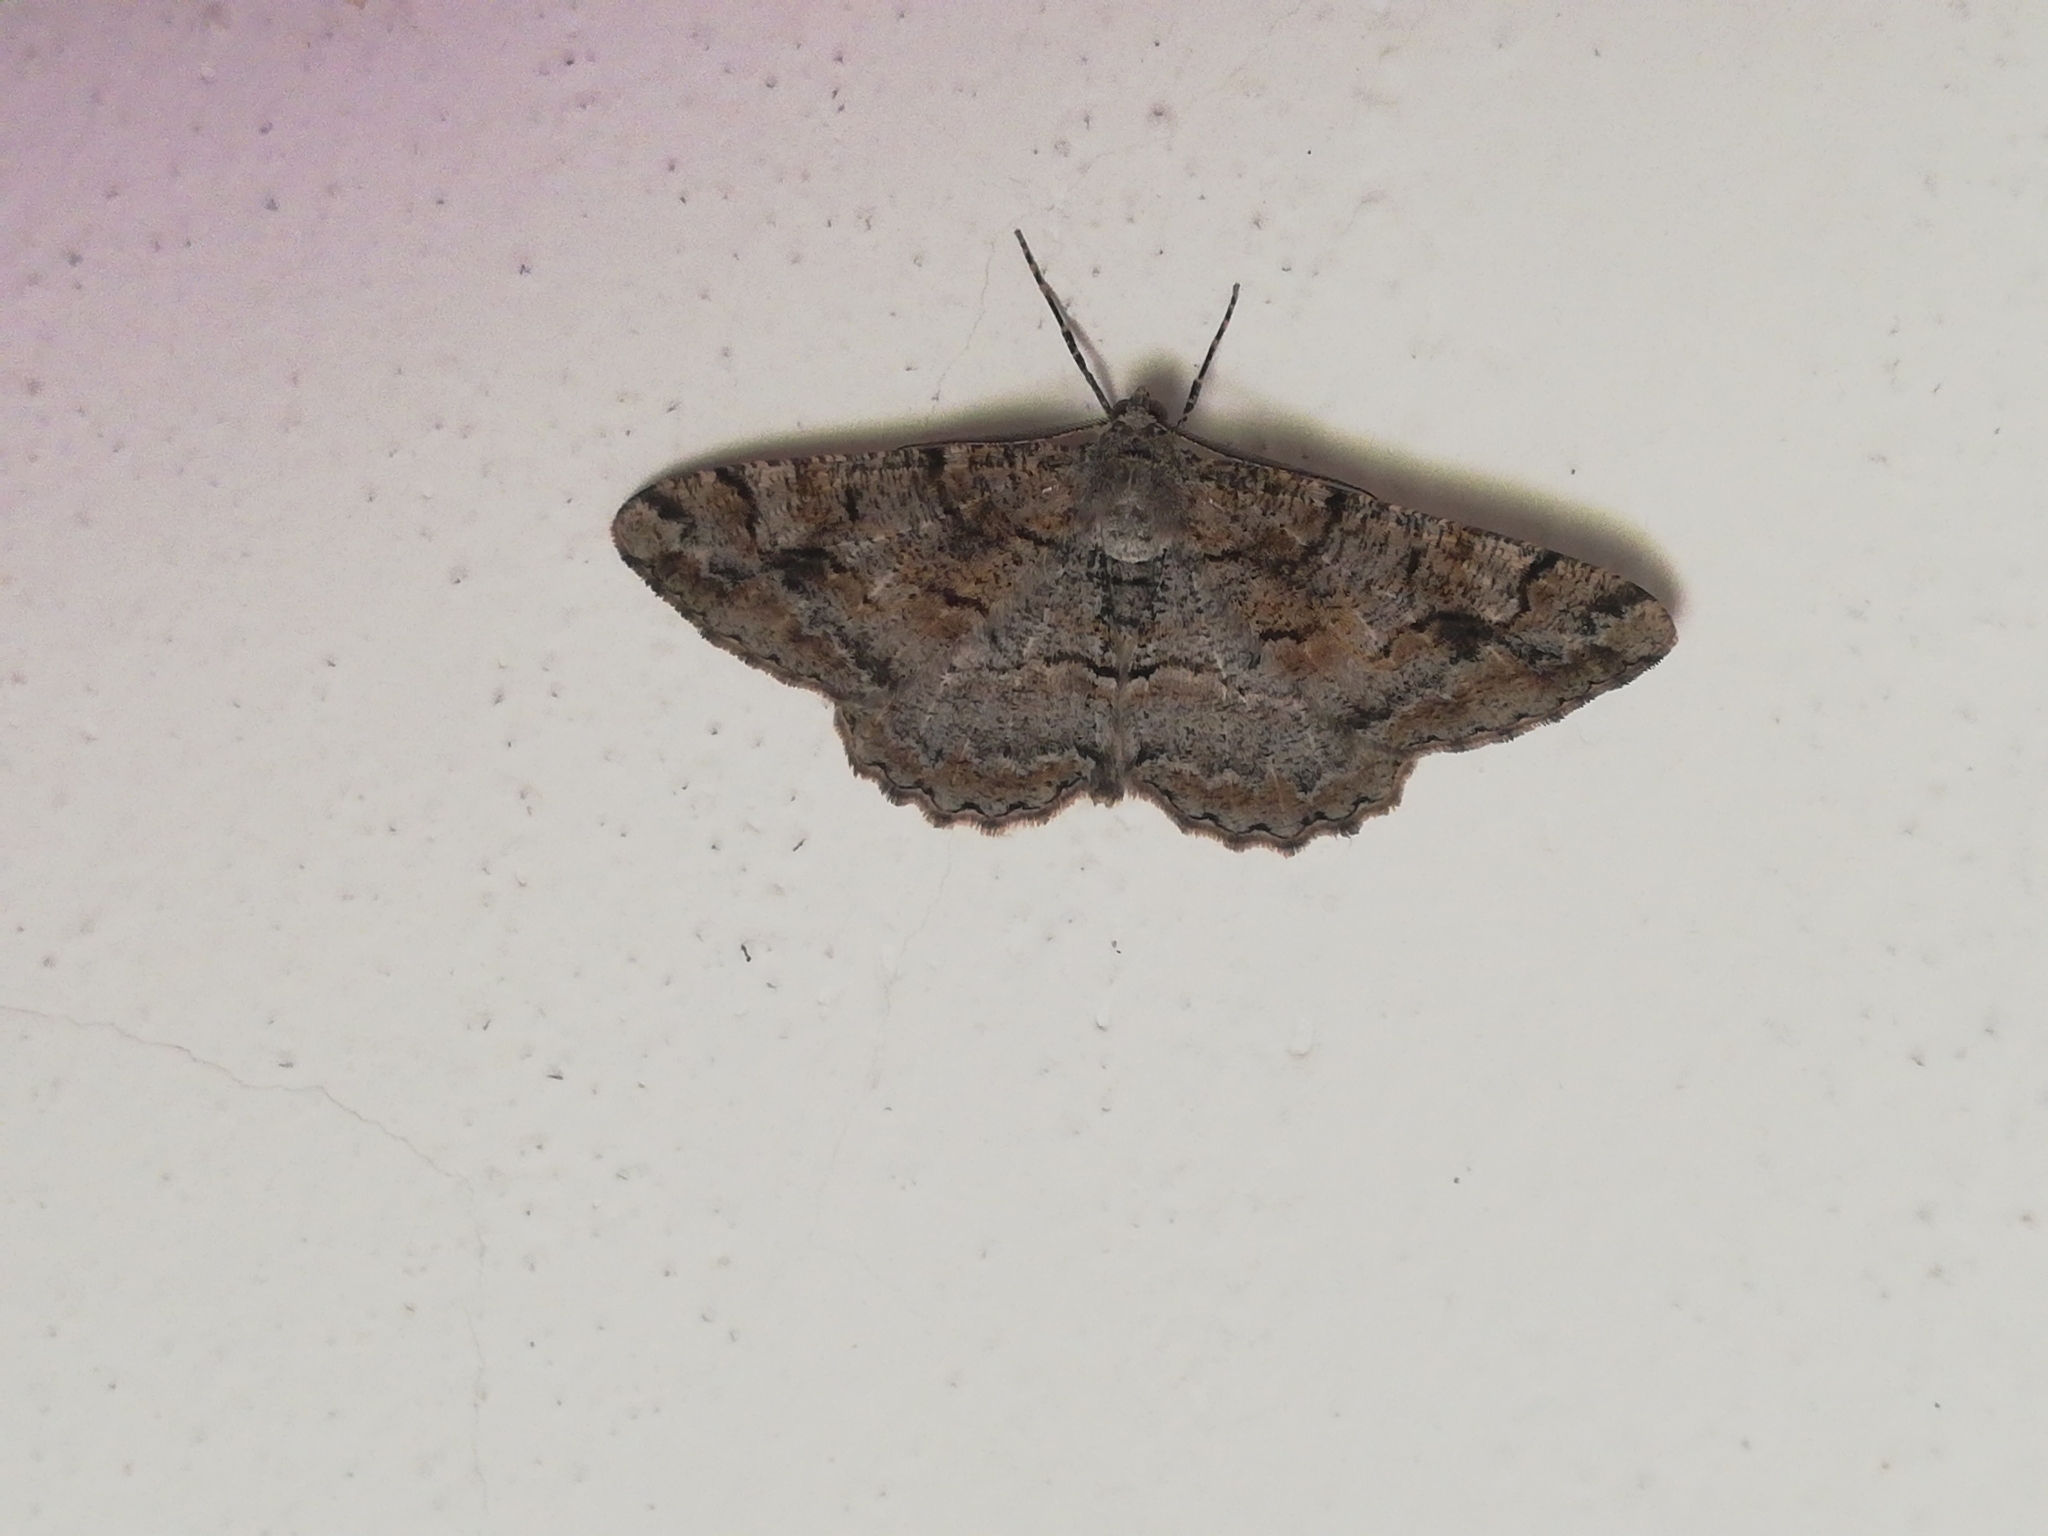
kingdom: Animalia
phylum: Arthropoda
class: Insecta
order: Lepidoptera
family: Geometridae
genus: Alcis
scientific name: Alcis repandata
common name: Mottled beauty
